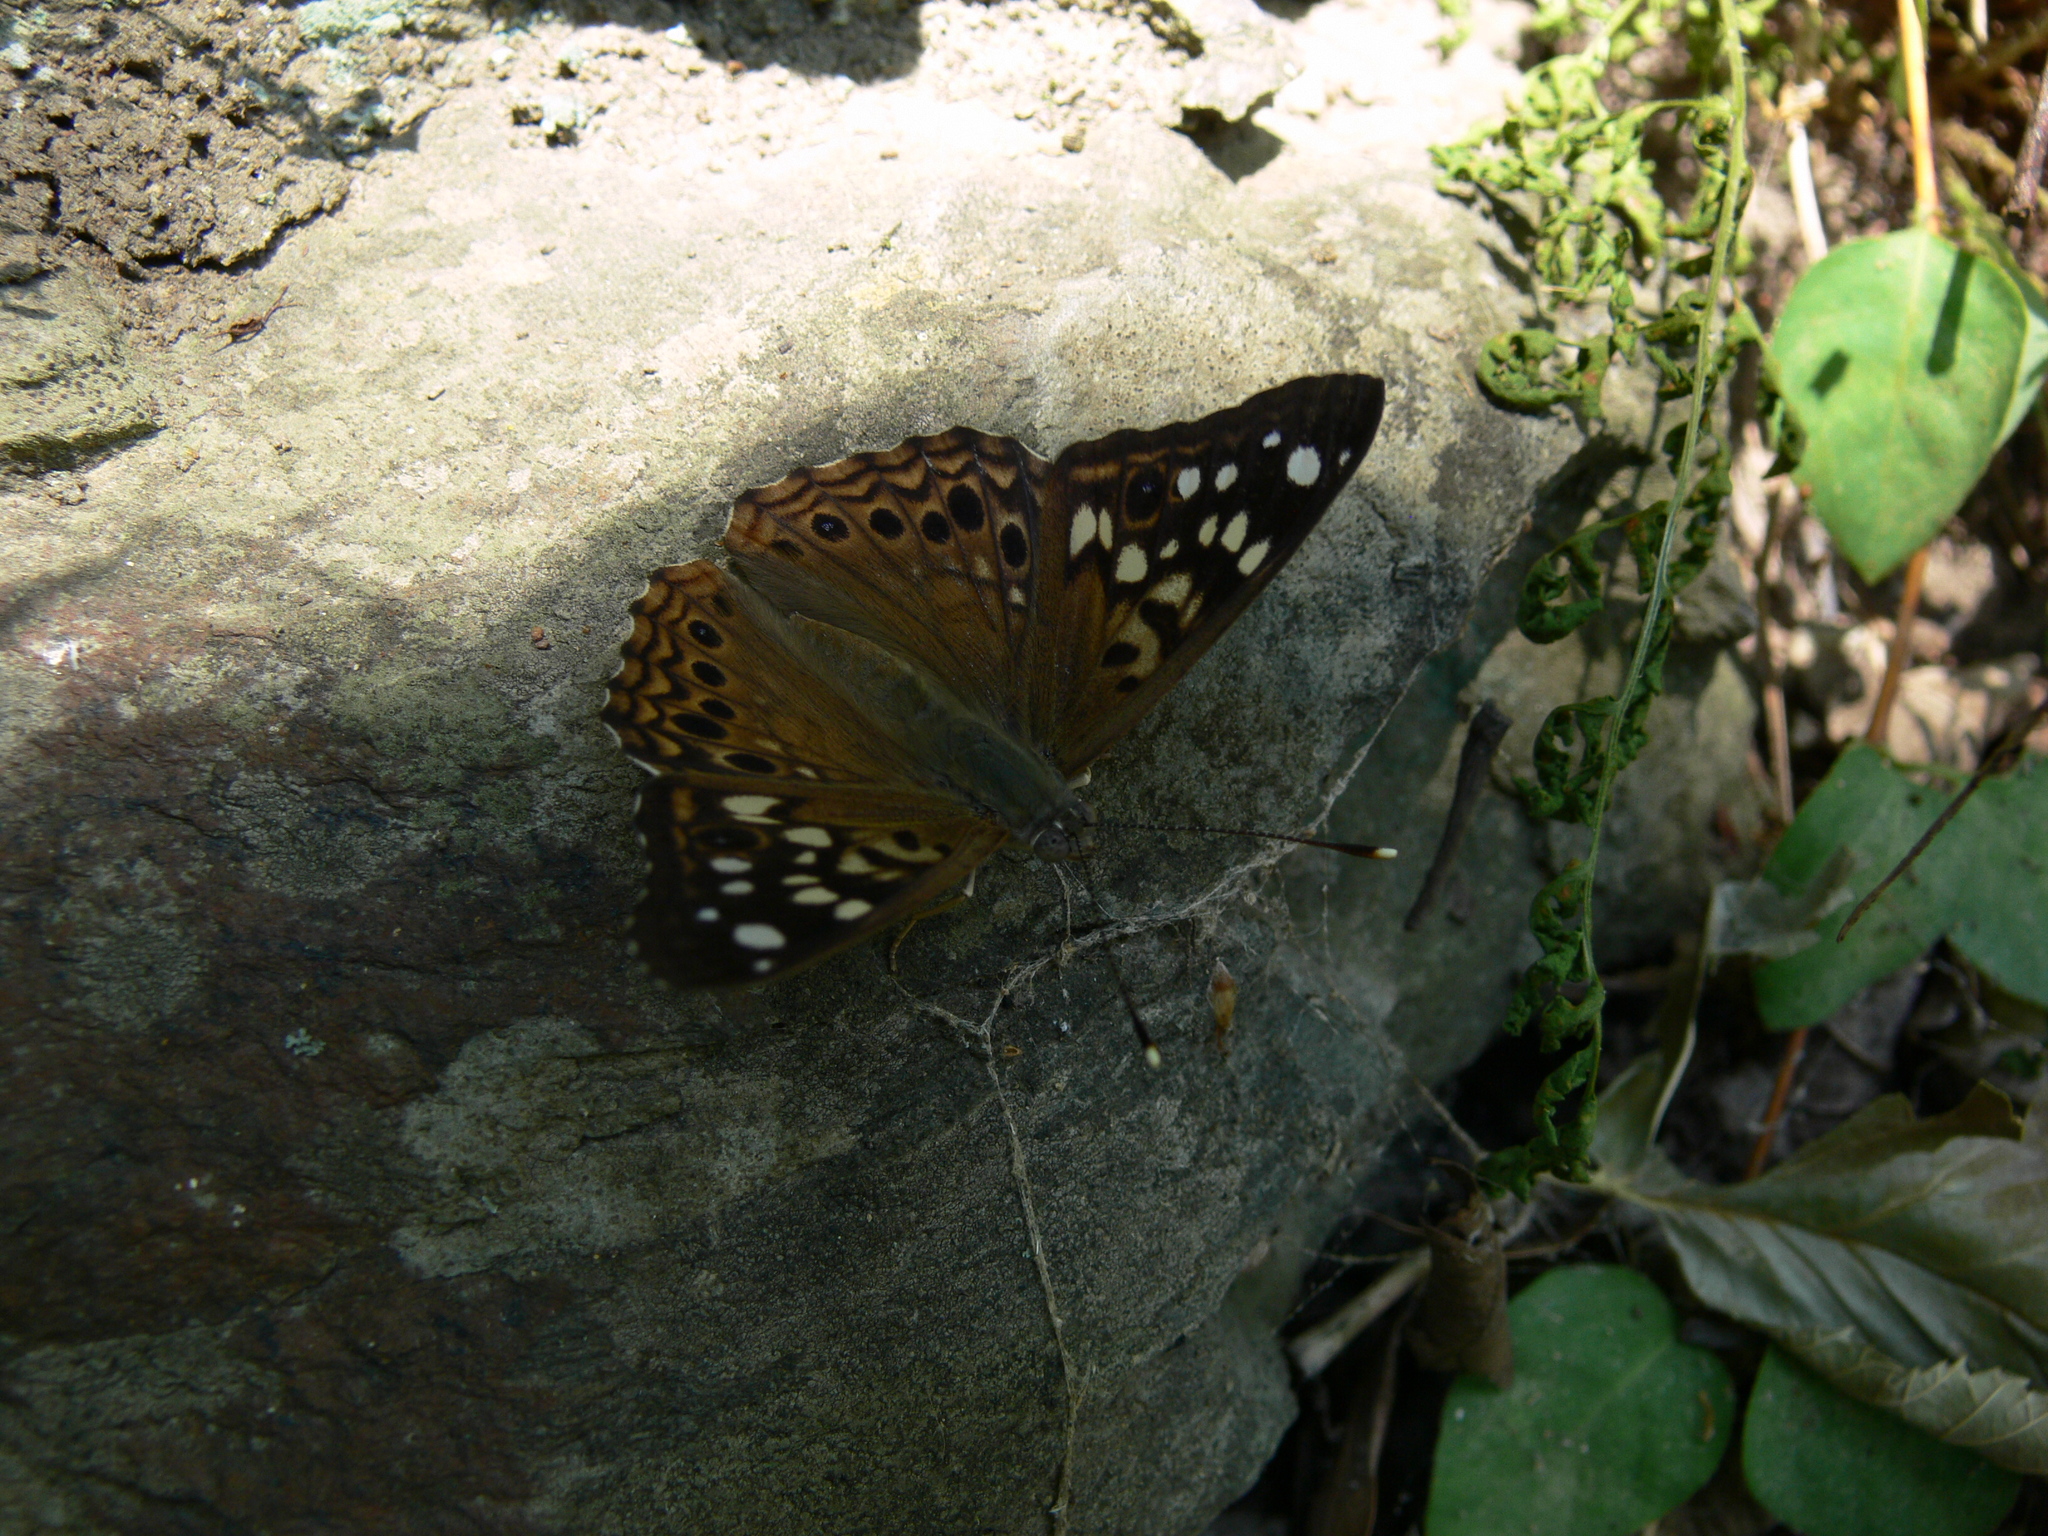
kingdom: Animalia
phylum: Arthropoda
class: Insecta
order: Lepidoptera
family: Nymphalidae
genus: Asterocampa
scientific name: Asterocampa celtis
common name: Hackberry emperor
